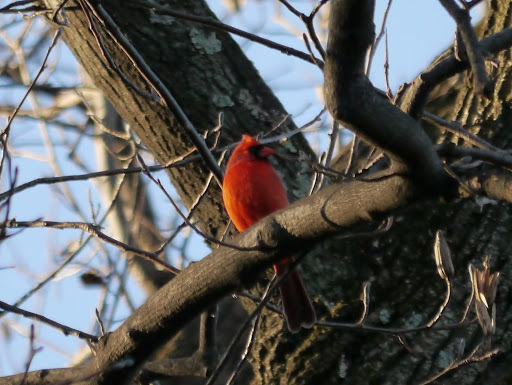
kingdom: Animalia
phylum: Chordata
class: Aves
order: Passeriformes
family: Cardinalidae
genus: Cardinalis
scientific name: Cardinalis cardinalis
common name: Northern cardinal
